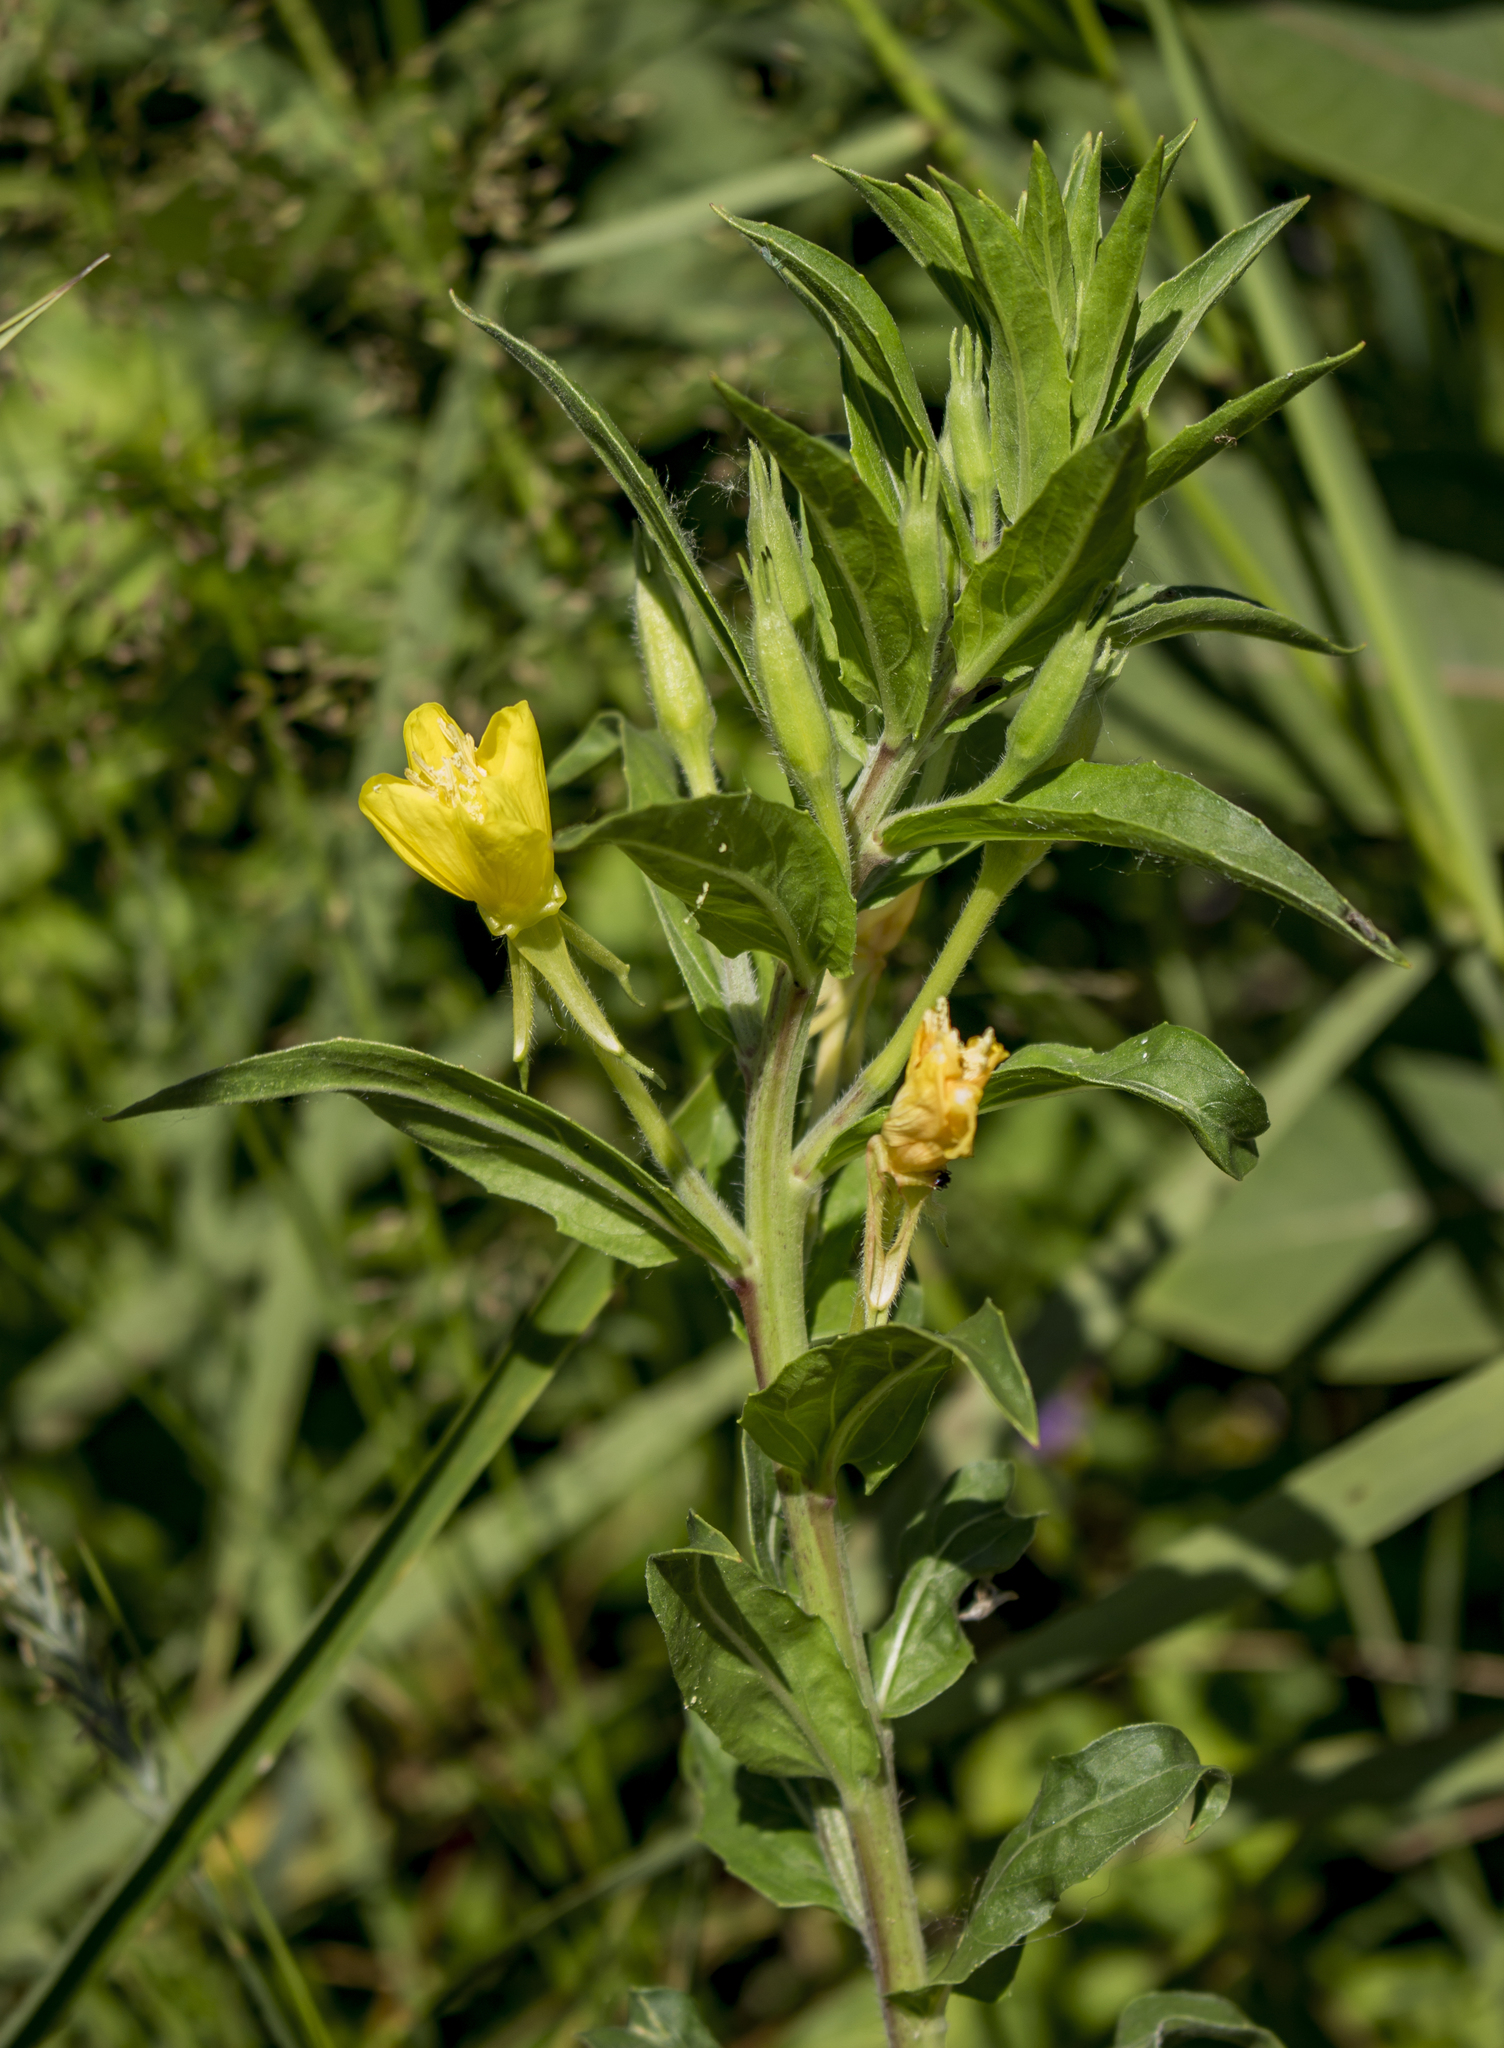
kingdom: Plantae
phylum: Tracheophyta
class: Magnoliopsida
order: Myrtales
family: Onagraceae
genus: Oenothera
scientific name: Oenothera biennis
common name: Common evening-primrose
